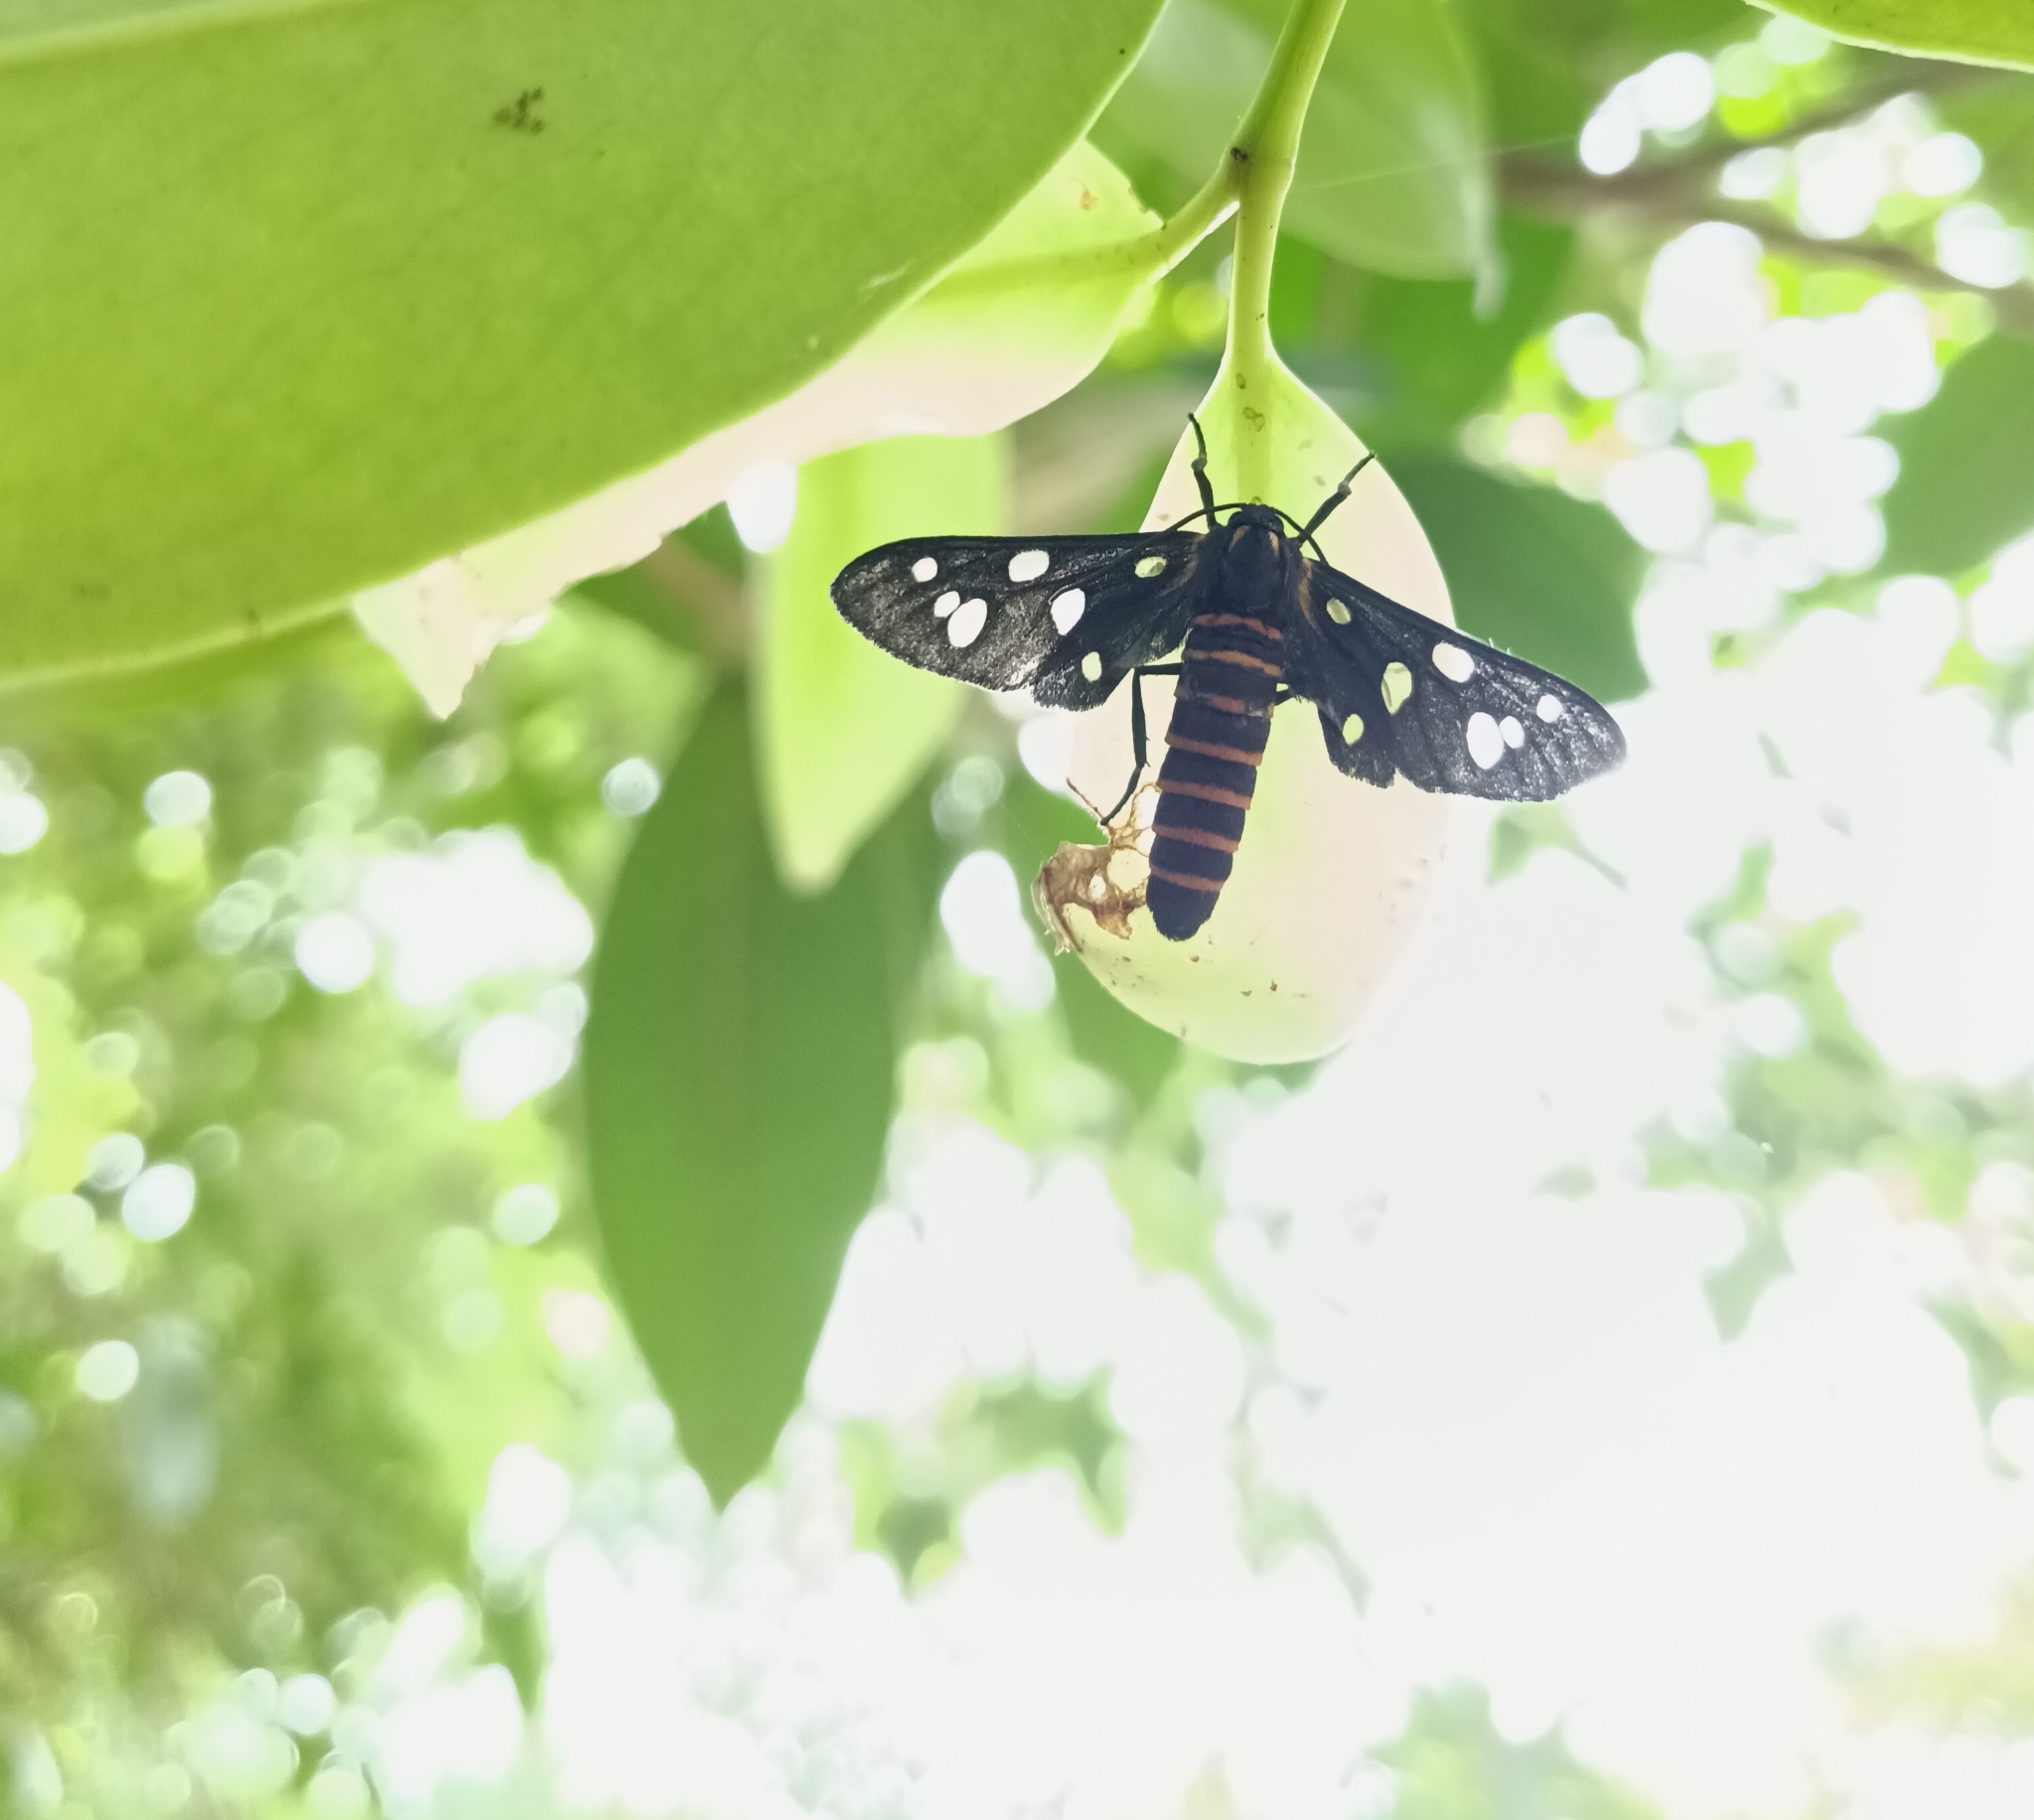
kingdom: Animalia
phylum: Arthropoda
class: Insecta
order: Lepidoptera
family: Erebidae
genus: Amata
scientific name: Amata passalis
